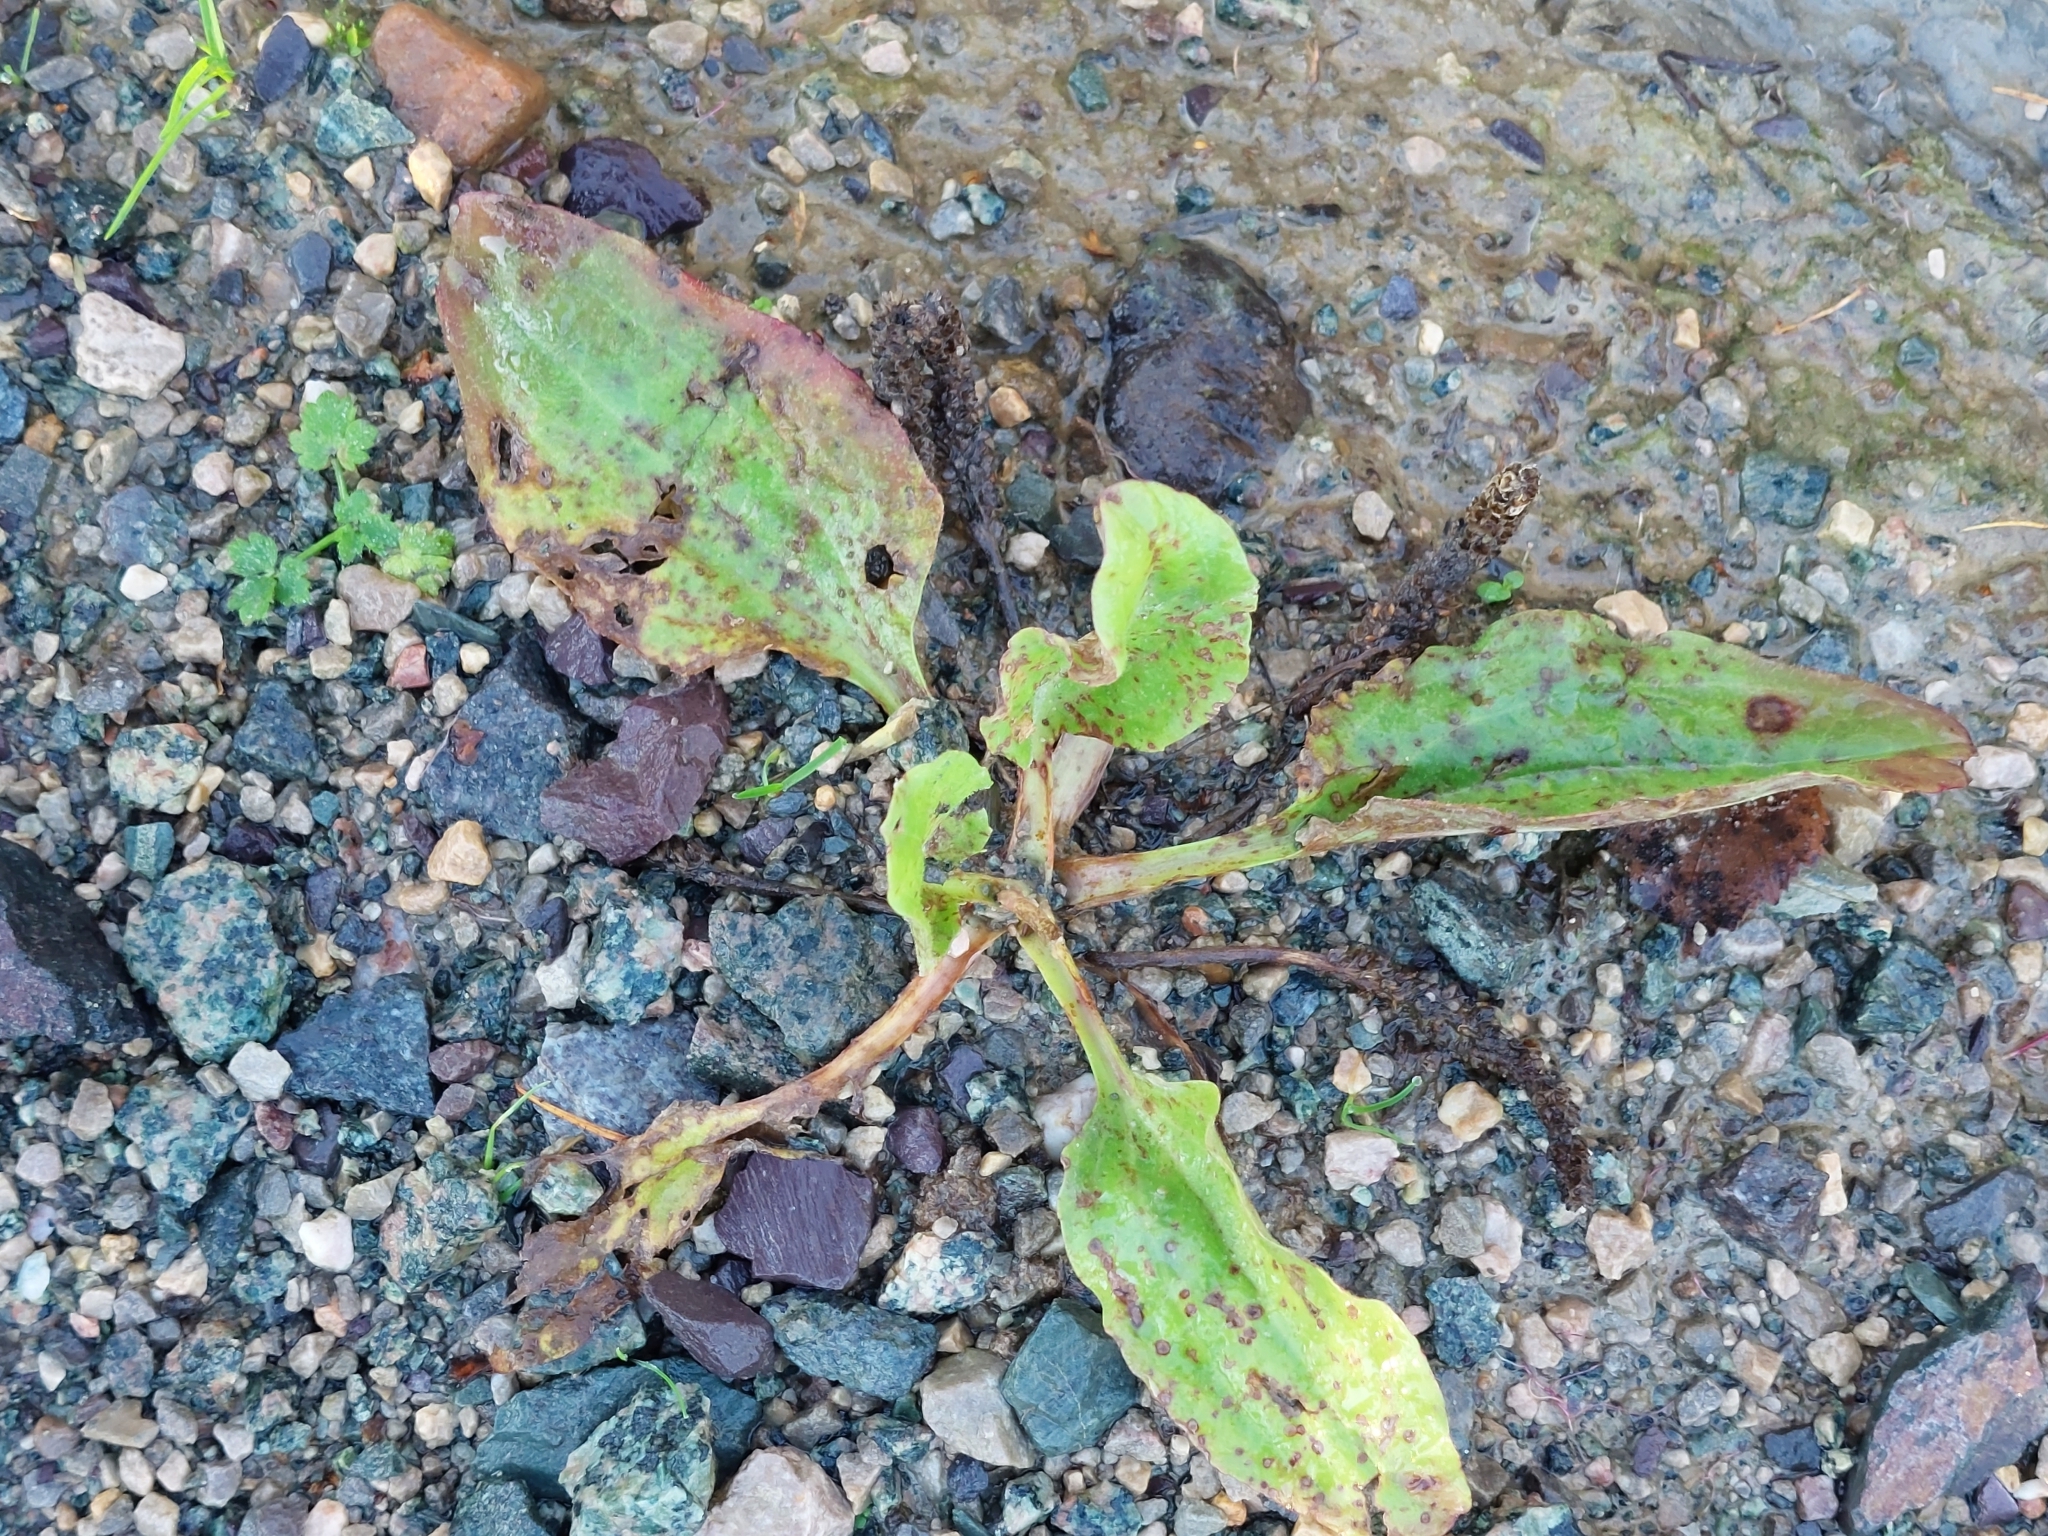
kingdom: Plantae
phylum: Tracheophyta
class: Magnoliopsida
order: Lamiales
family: Plantaginaceae
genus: Plantago
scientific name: Plantago major
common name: Common plantain
